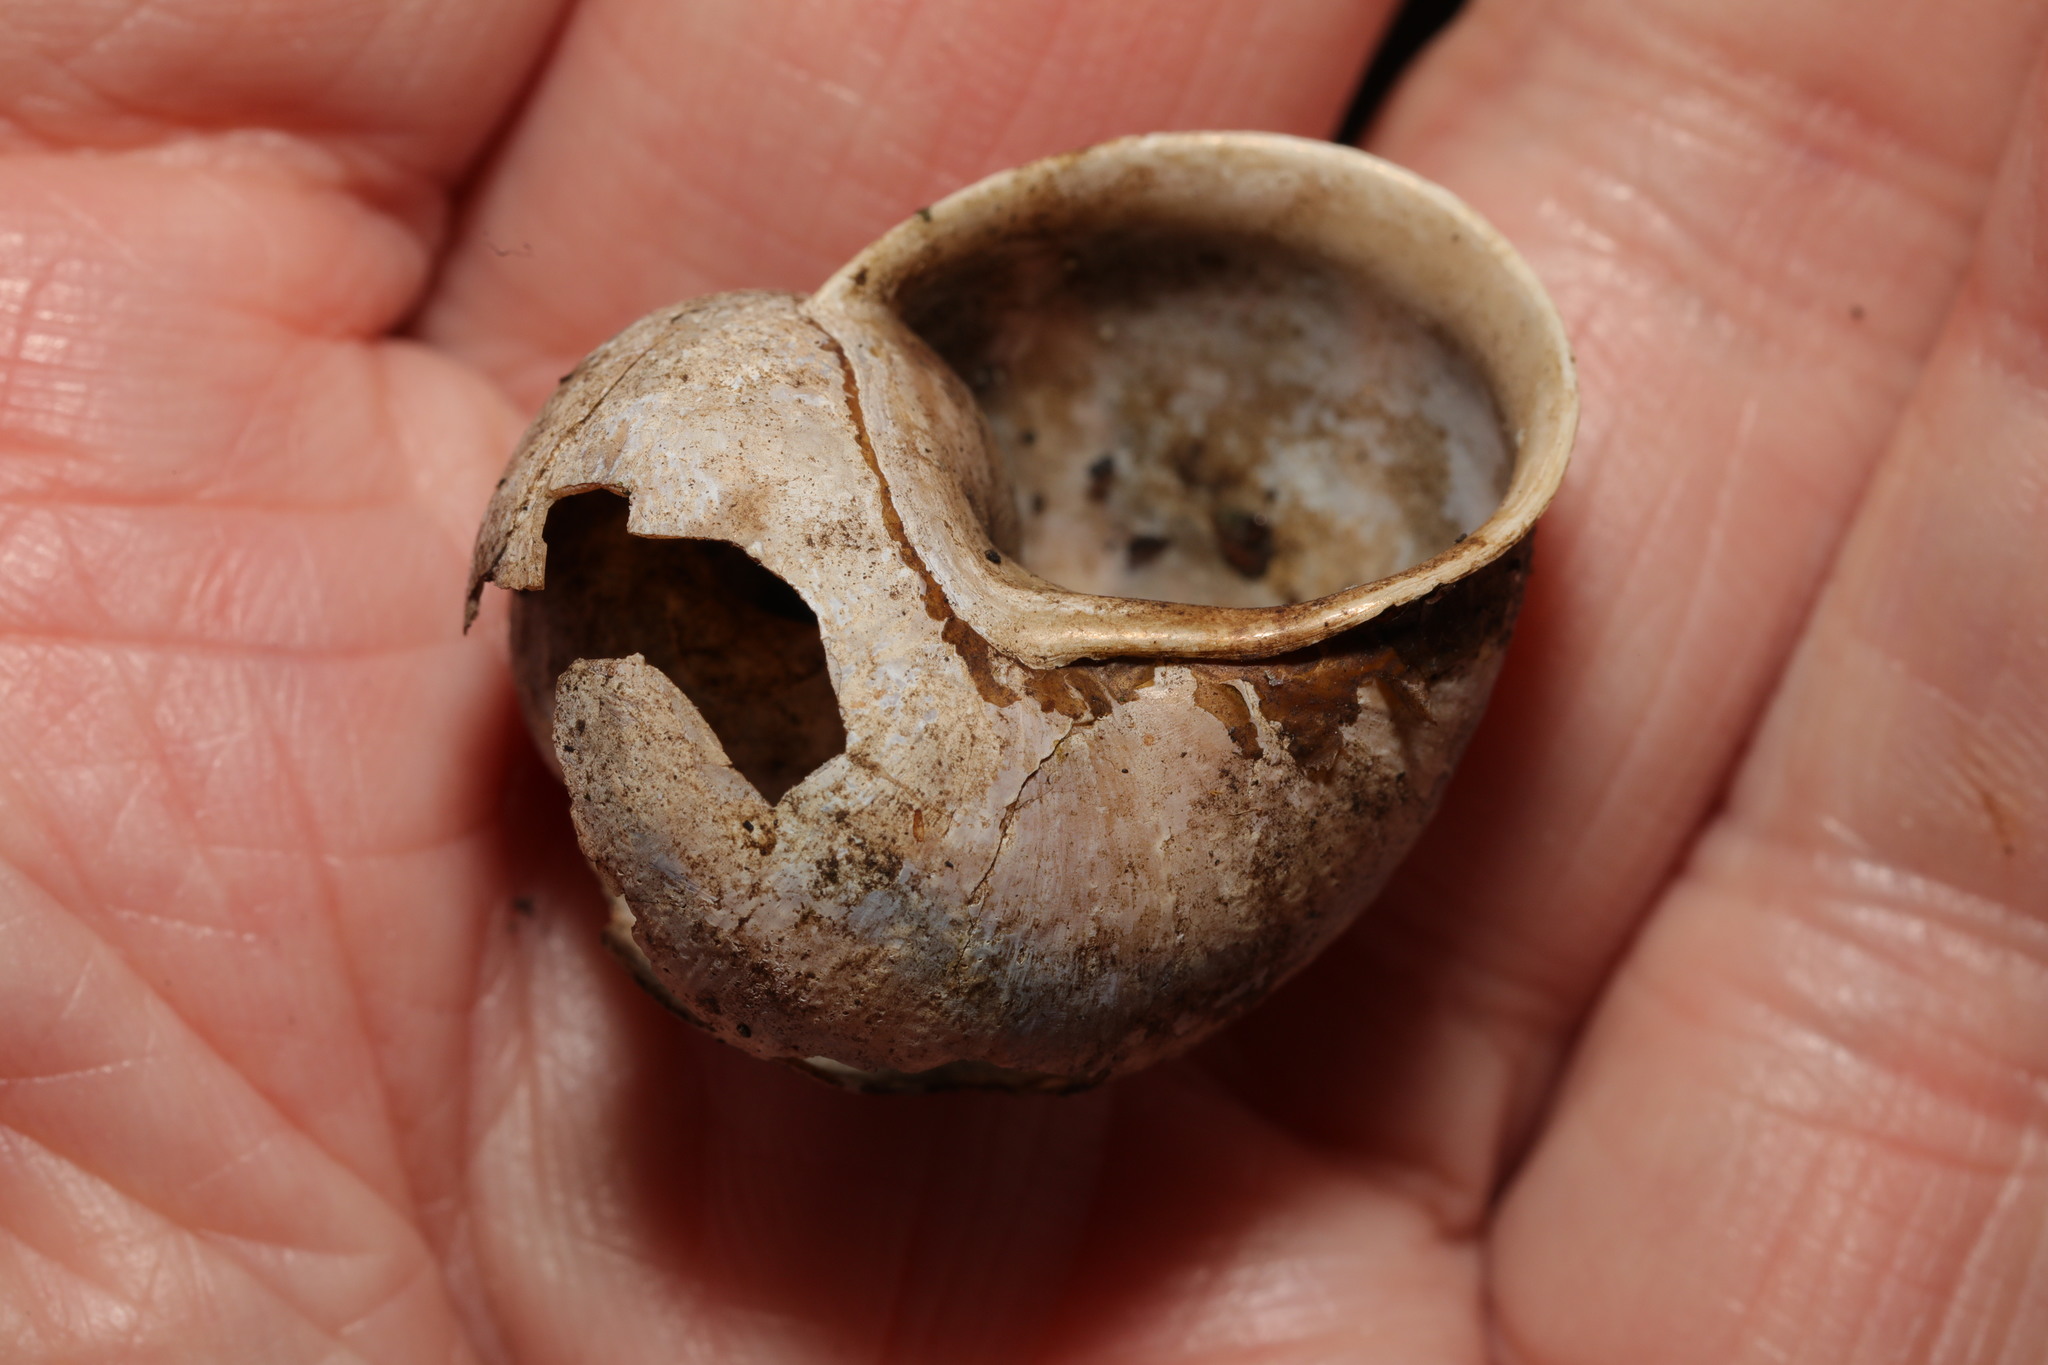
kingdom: Animalia
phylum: Mollusca
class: Gastropoda
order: Stylommatophora
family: Helicidae
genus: Cornu
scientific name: Cornu aspersum
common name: Brown garden snail
